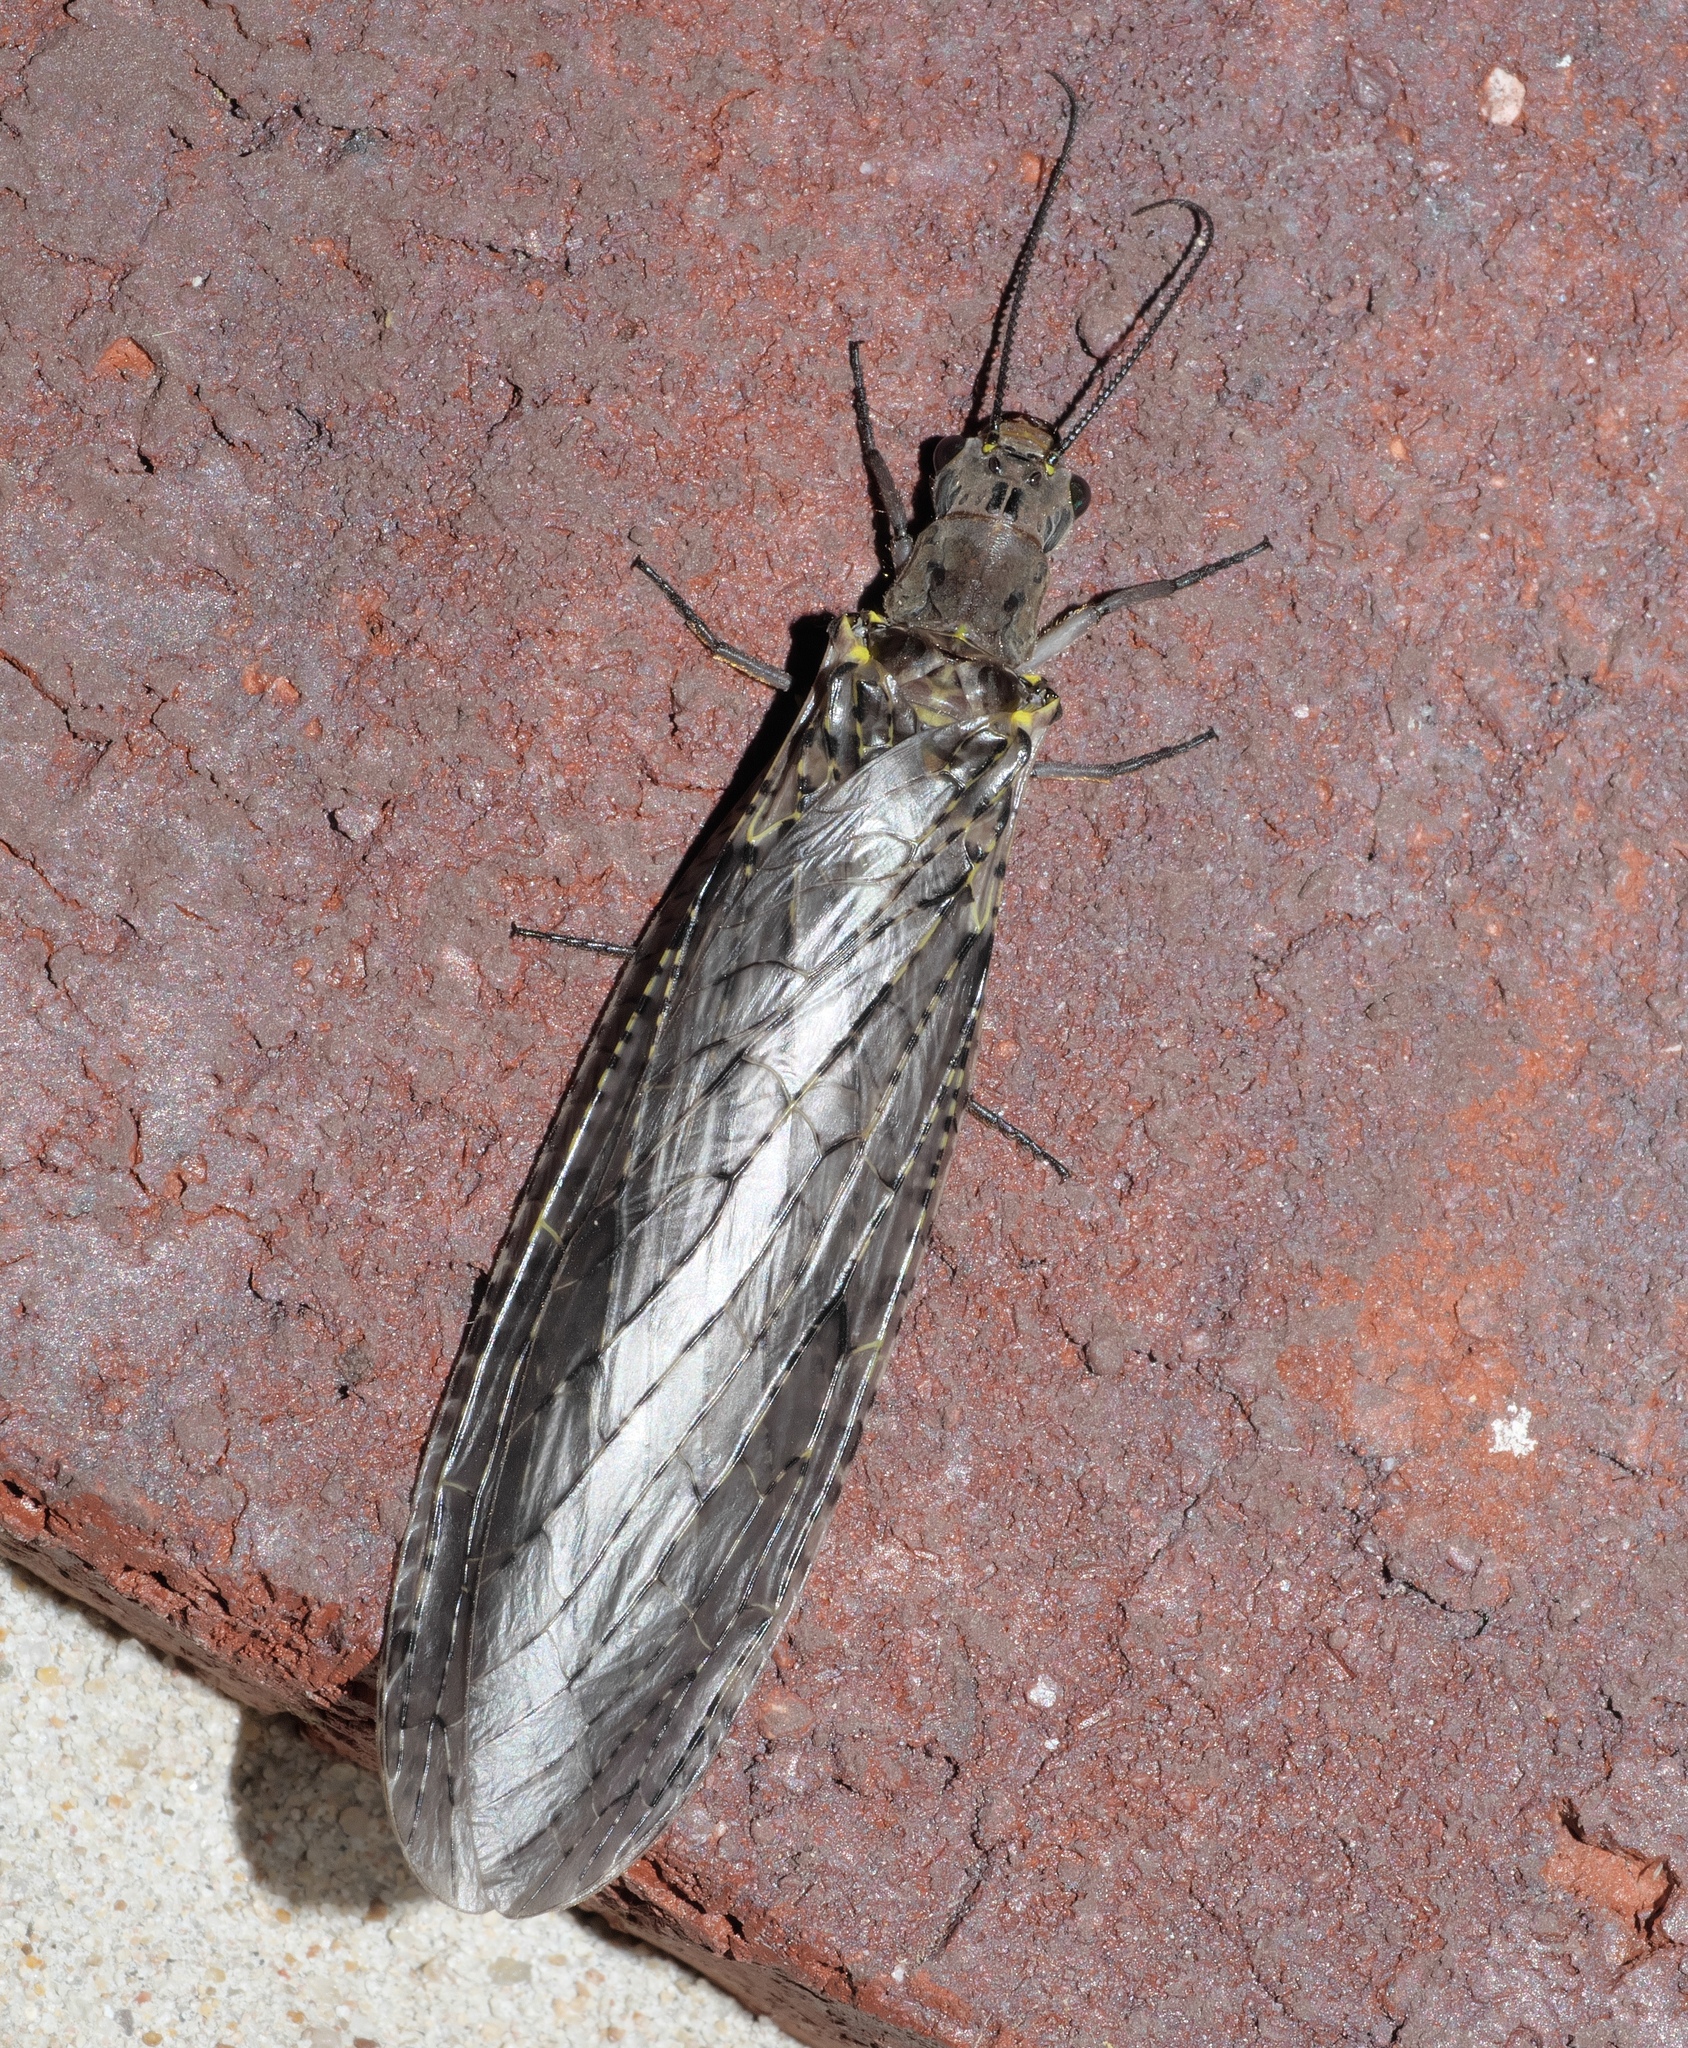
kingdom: Animalia
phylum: Arthropoda
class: Insecta
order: Megaloptera
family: Corydalidae
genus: Chauliodes
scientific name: Chauliodes rastricornis
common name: Spring fishfly
